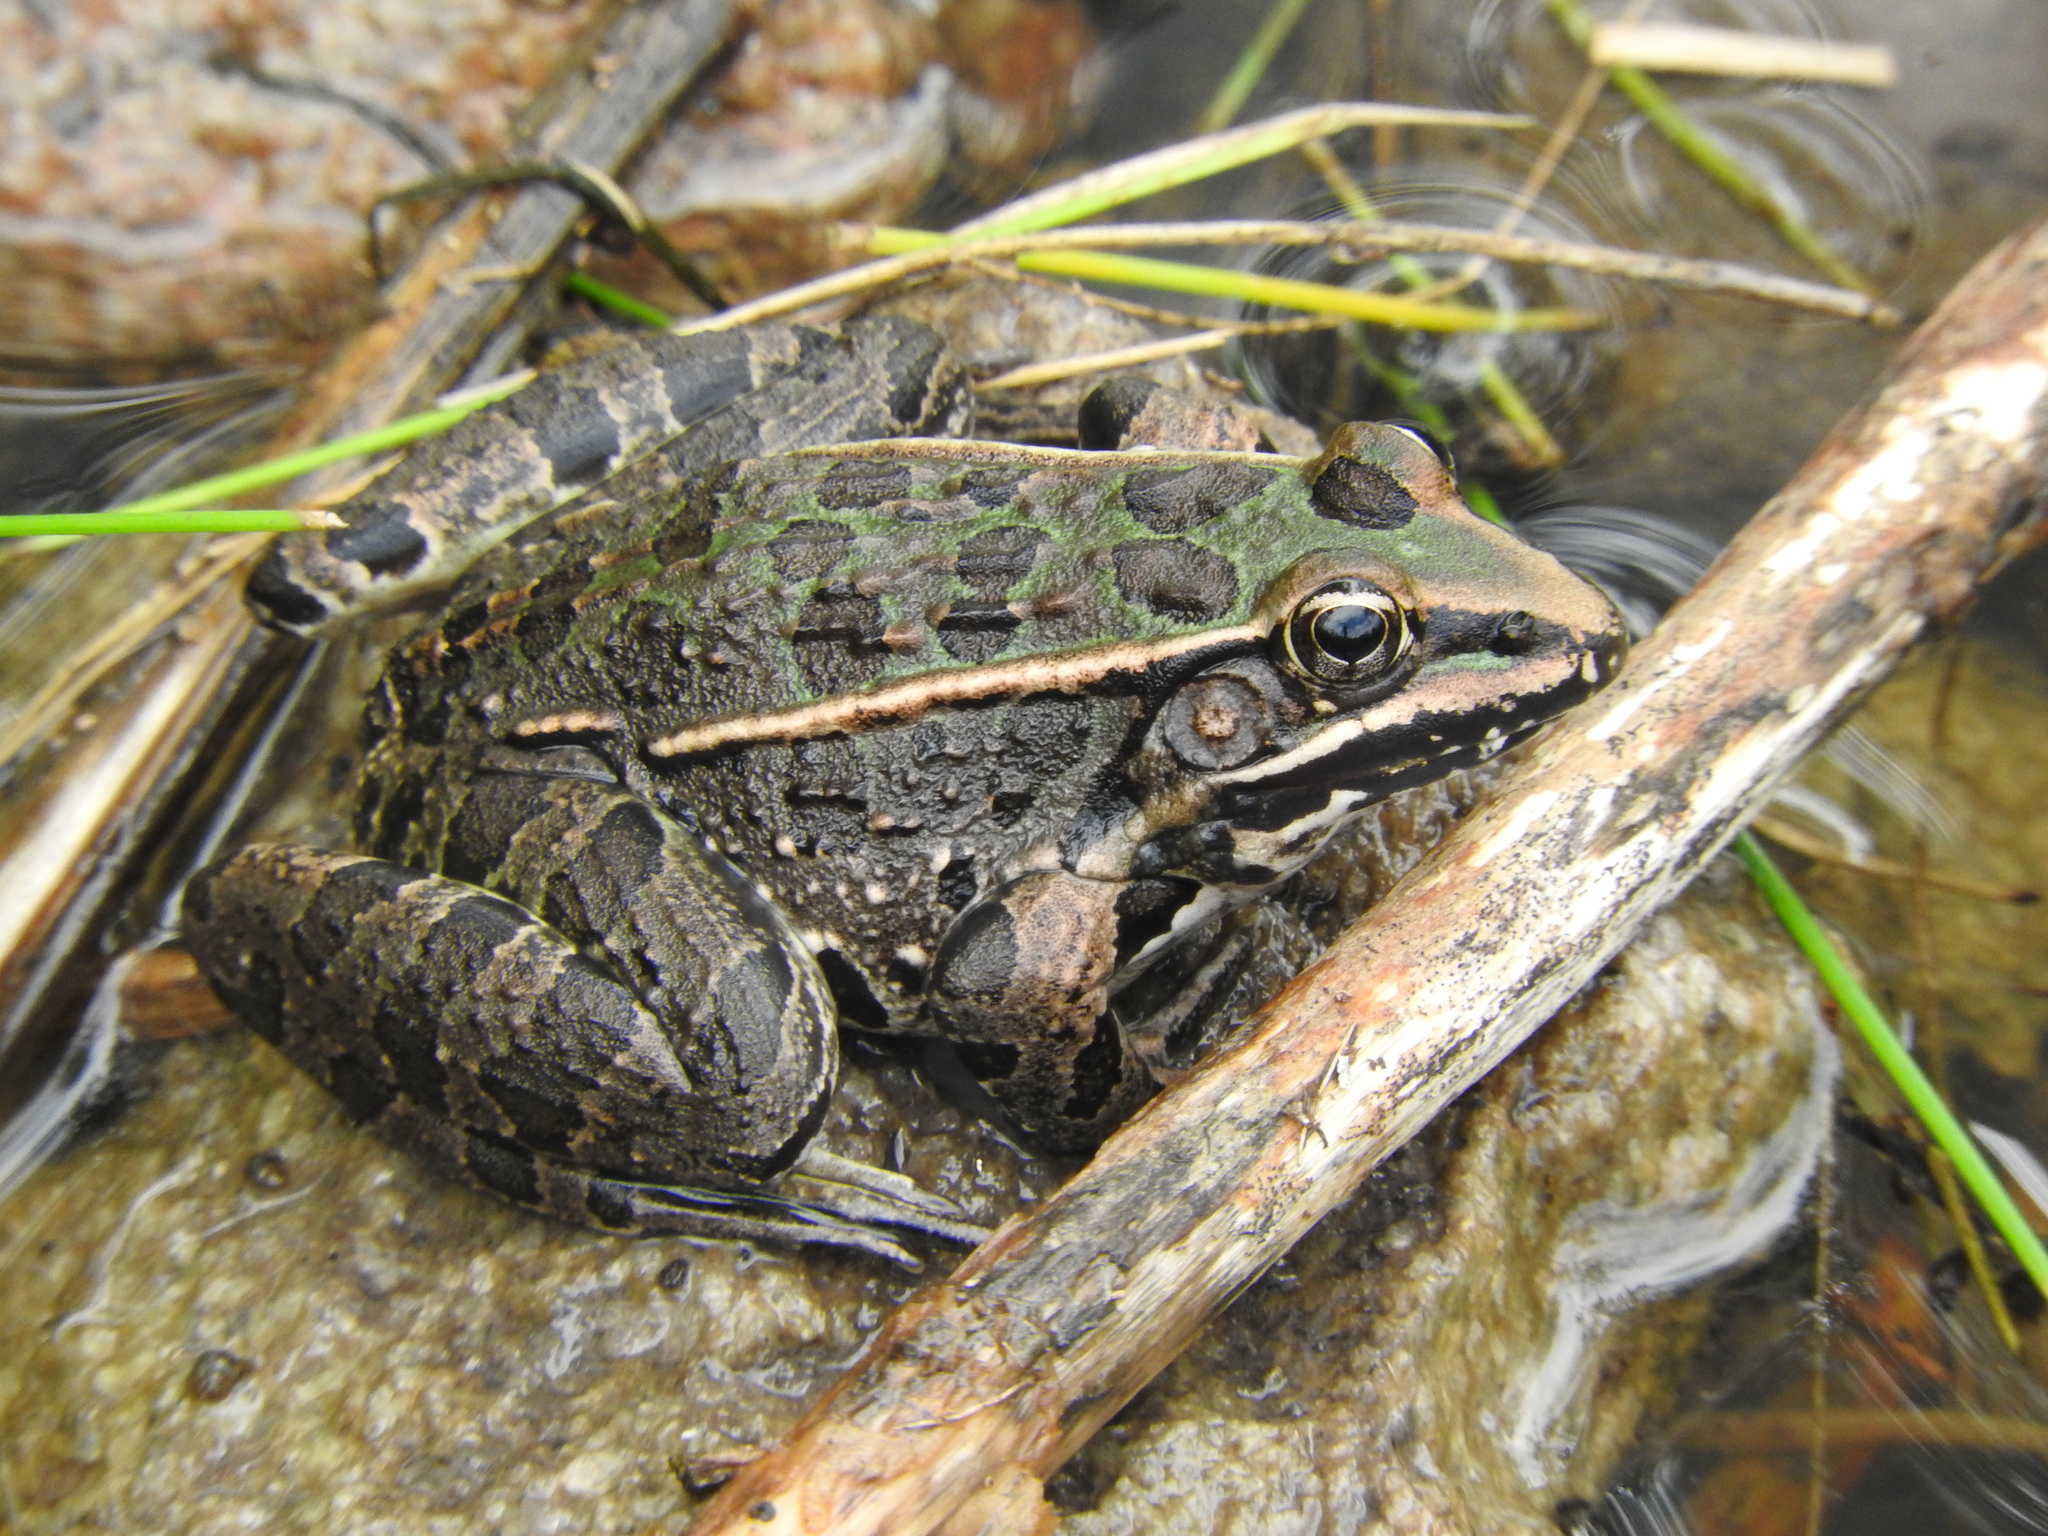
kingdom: Animalia
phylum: Chordata
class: Amphibia
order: Anura
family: Ranidae
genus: Lithobates
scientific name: Lithobates neovolcanicus
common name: Transverse volcanic leopard frog
